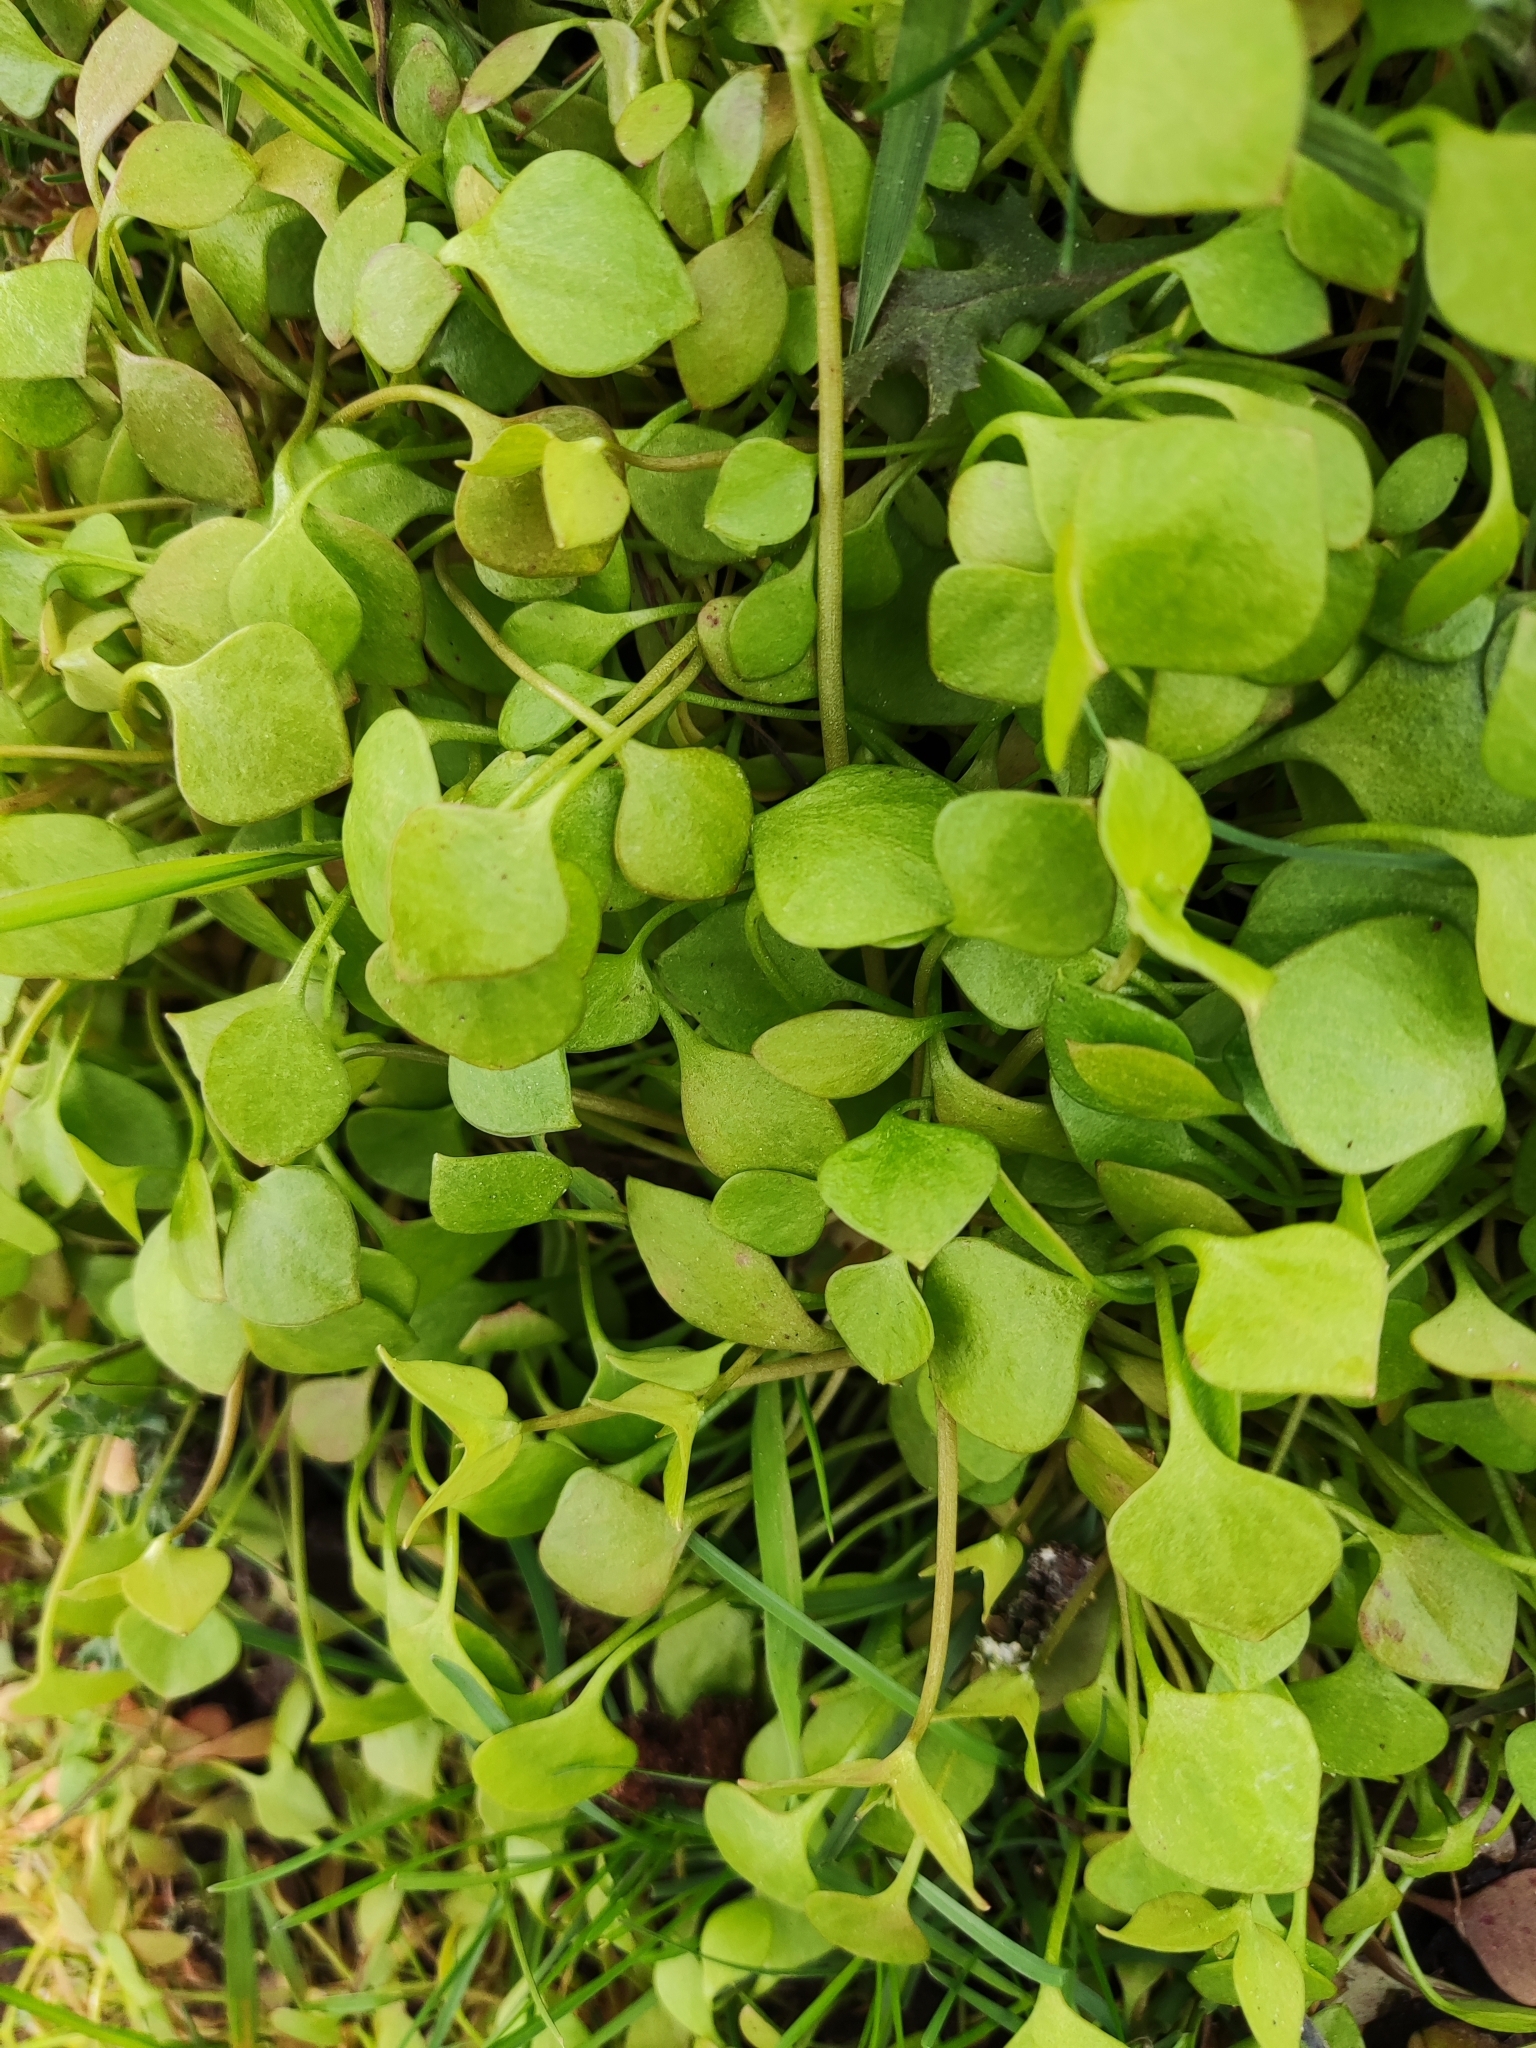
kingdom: Plantae
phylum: Tracheophyta
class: Magnoliopsida
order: Caryophyllales
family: Montiaceae
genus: Claytonia
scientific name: Claytonia perfoliata
